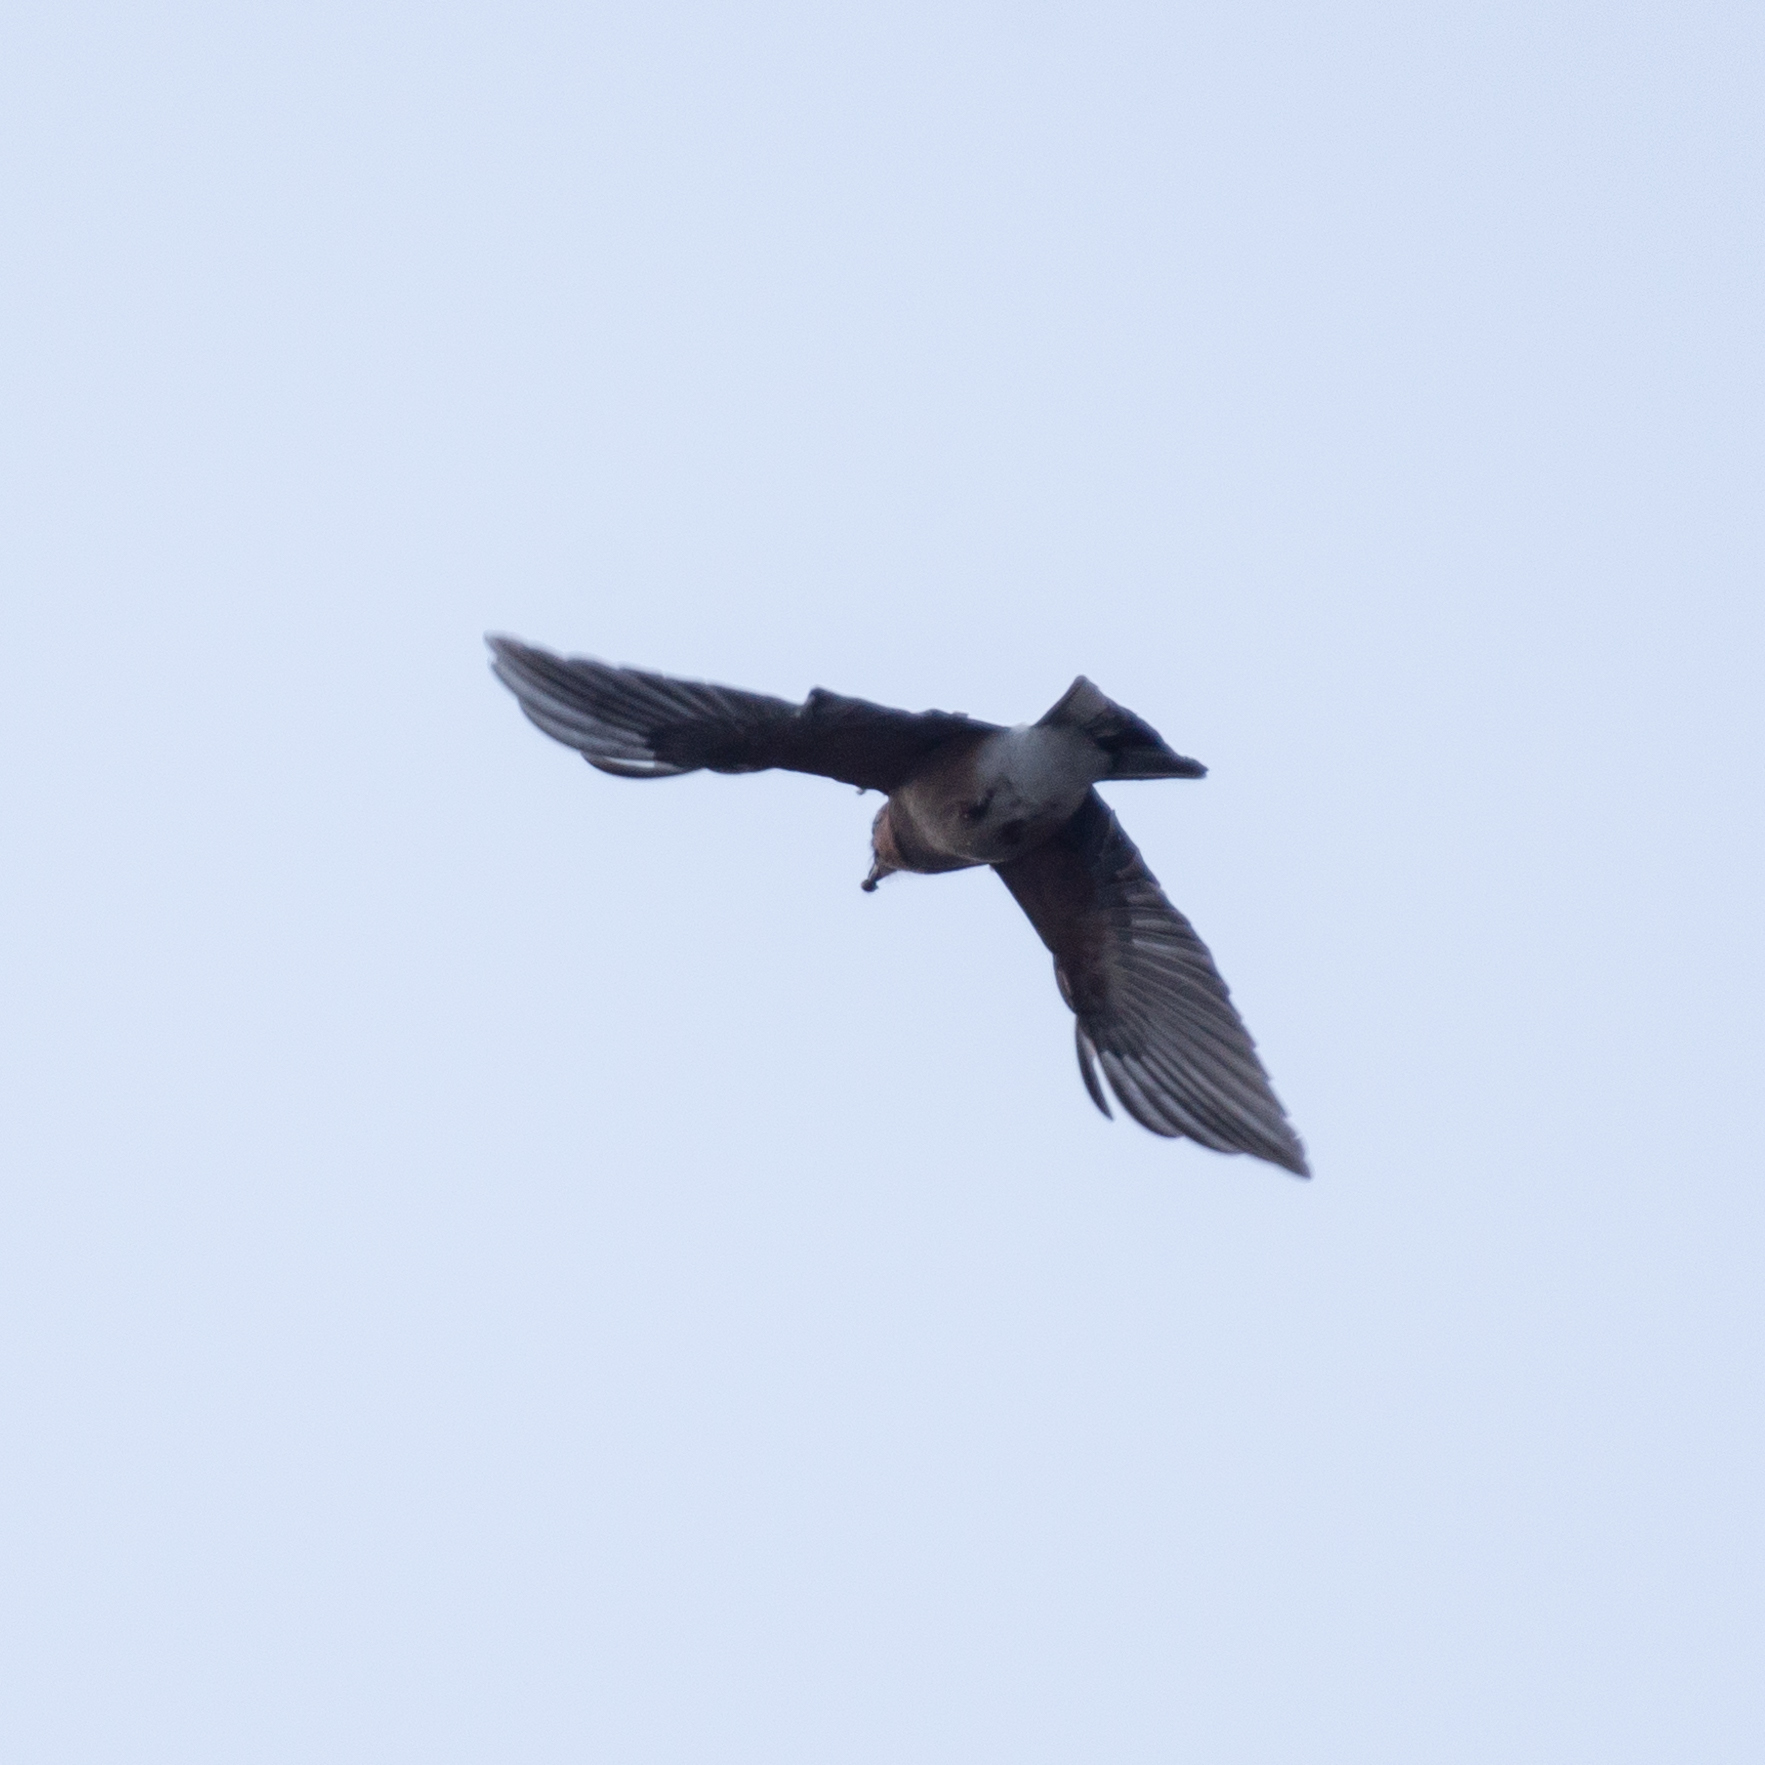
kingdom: Animalia
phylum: Chordata
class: Aves
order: Passeriformes
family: Corvidae
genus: Garrulus
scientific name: Garrulus glandarius
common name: Eurasian jay
